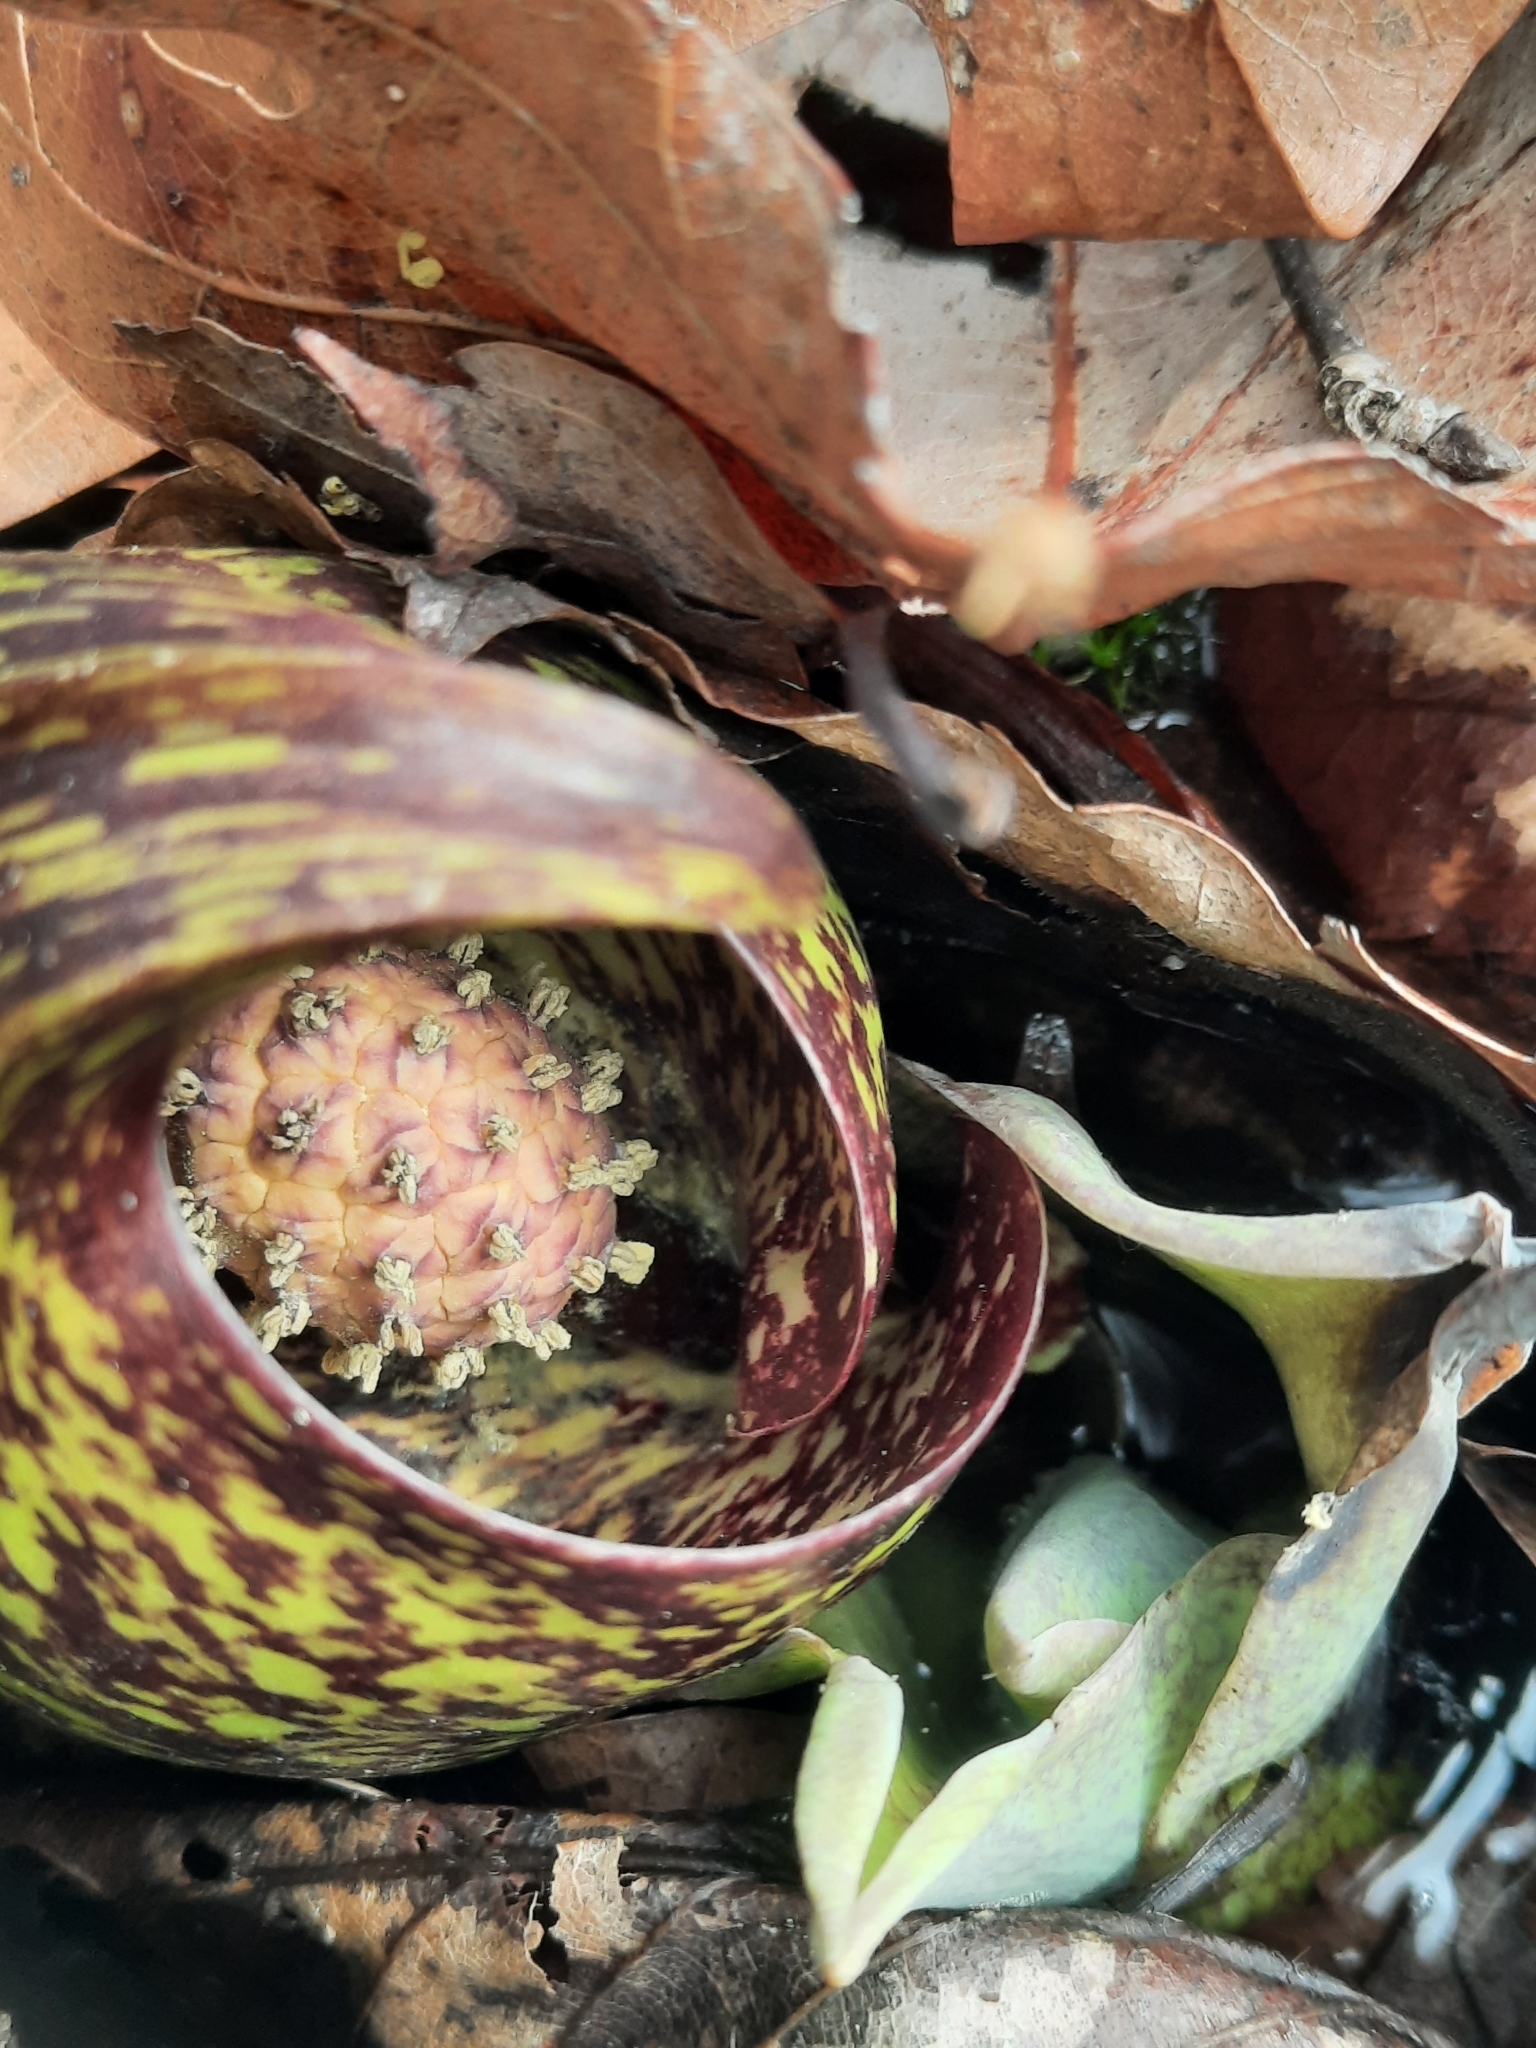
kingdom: Plantae
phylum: Tracheophyta
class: Liliopsida
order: Alismatales
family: Araceae
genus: Symplocarpus
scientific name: Symplocarpus foetidus
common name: Eastern skunk cabbage
